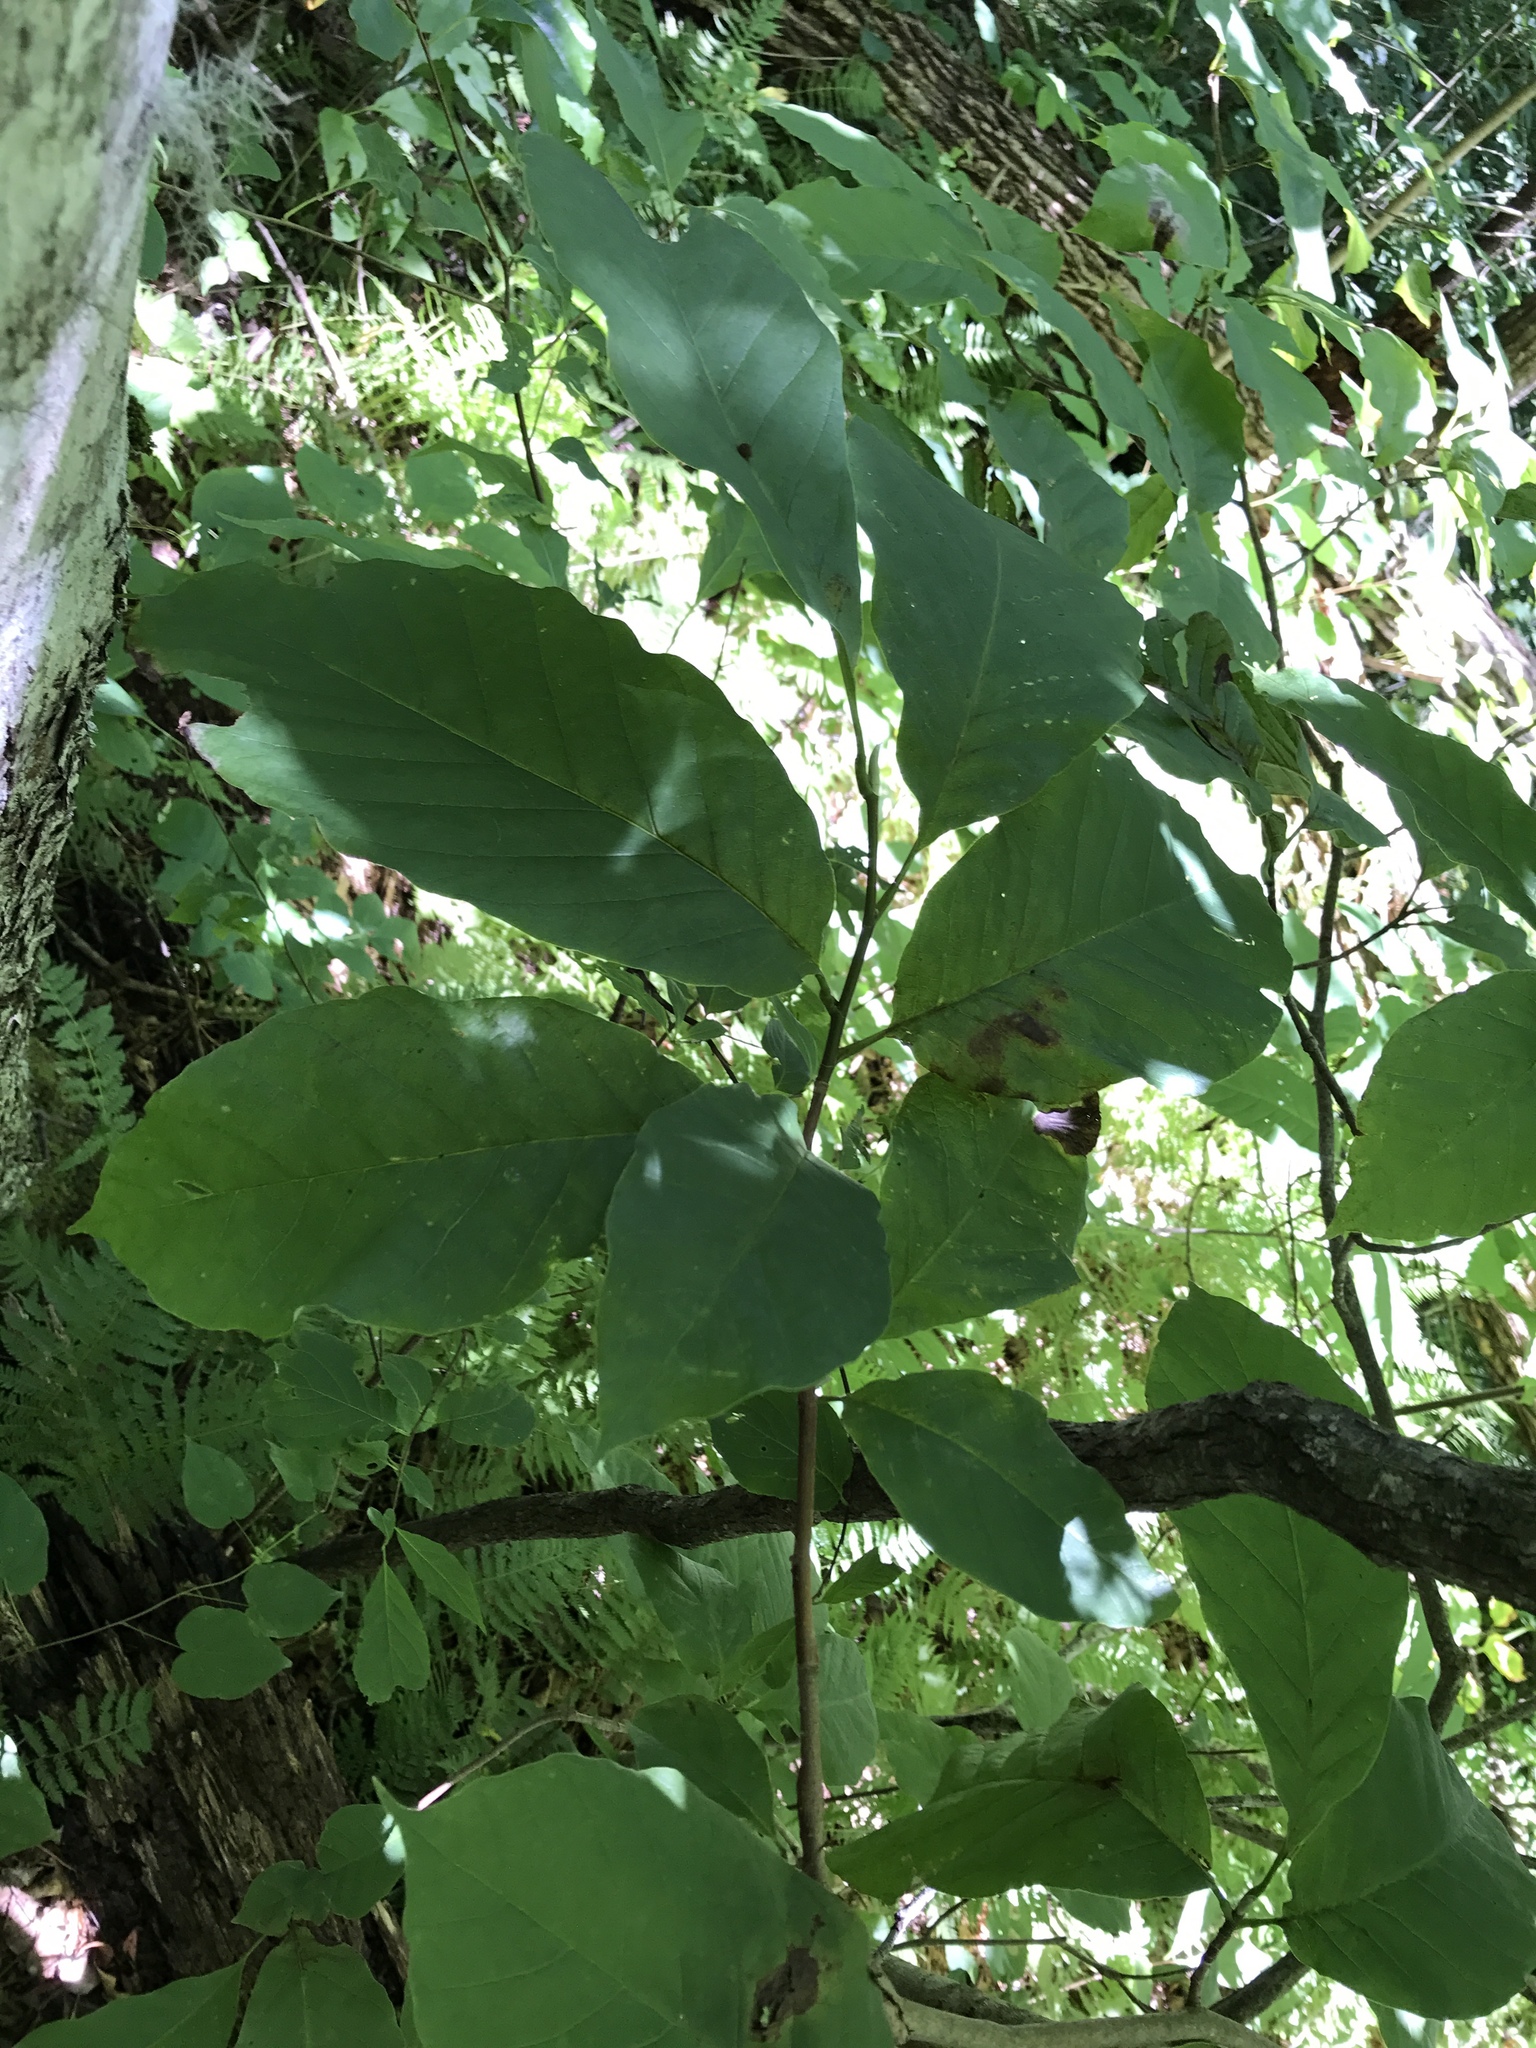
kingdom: Plantae
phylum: Tracheophyta
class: Magnoliopsida
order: Magnoliales
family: Magnoliaceae
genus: Magnolia
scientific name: Magnolia acuminata
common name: Cucumber magnolia
